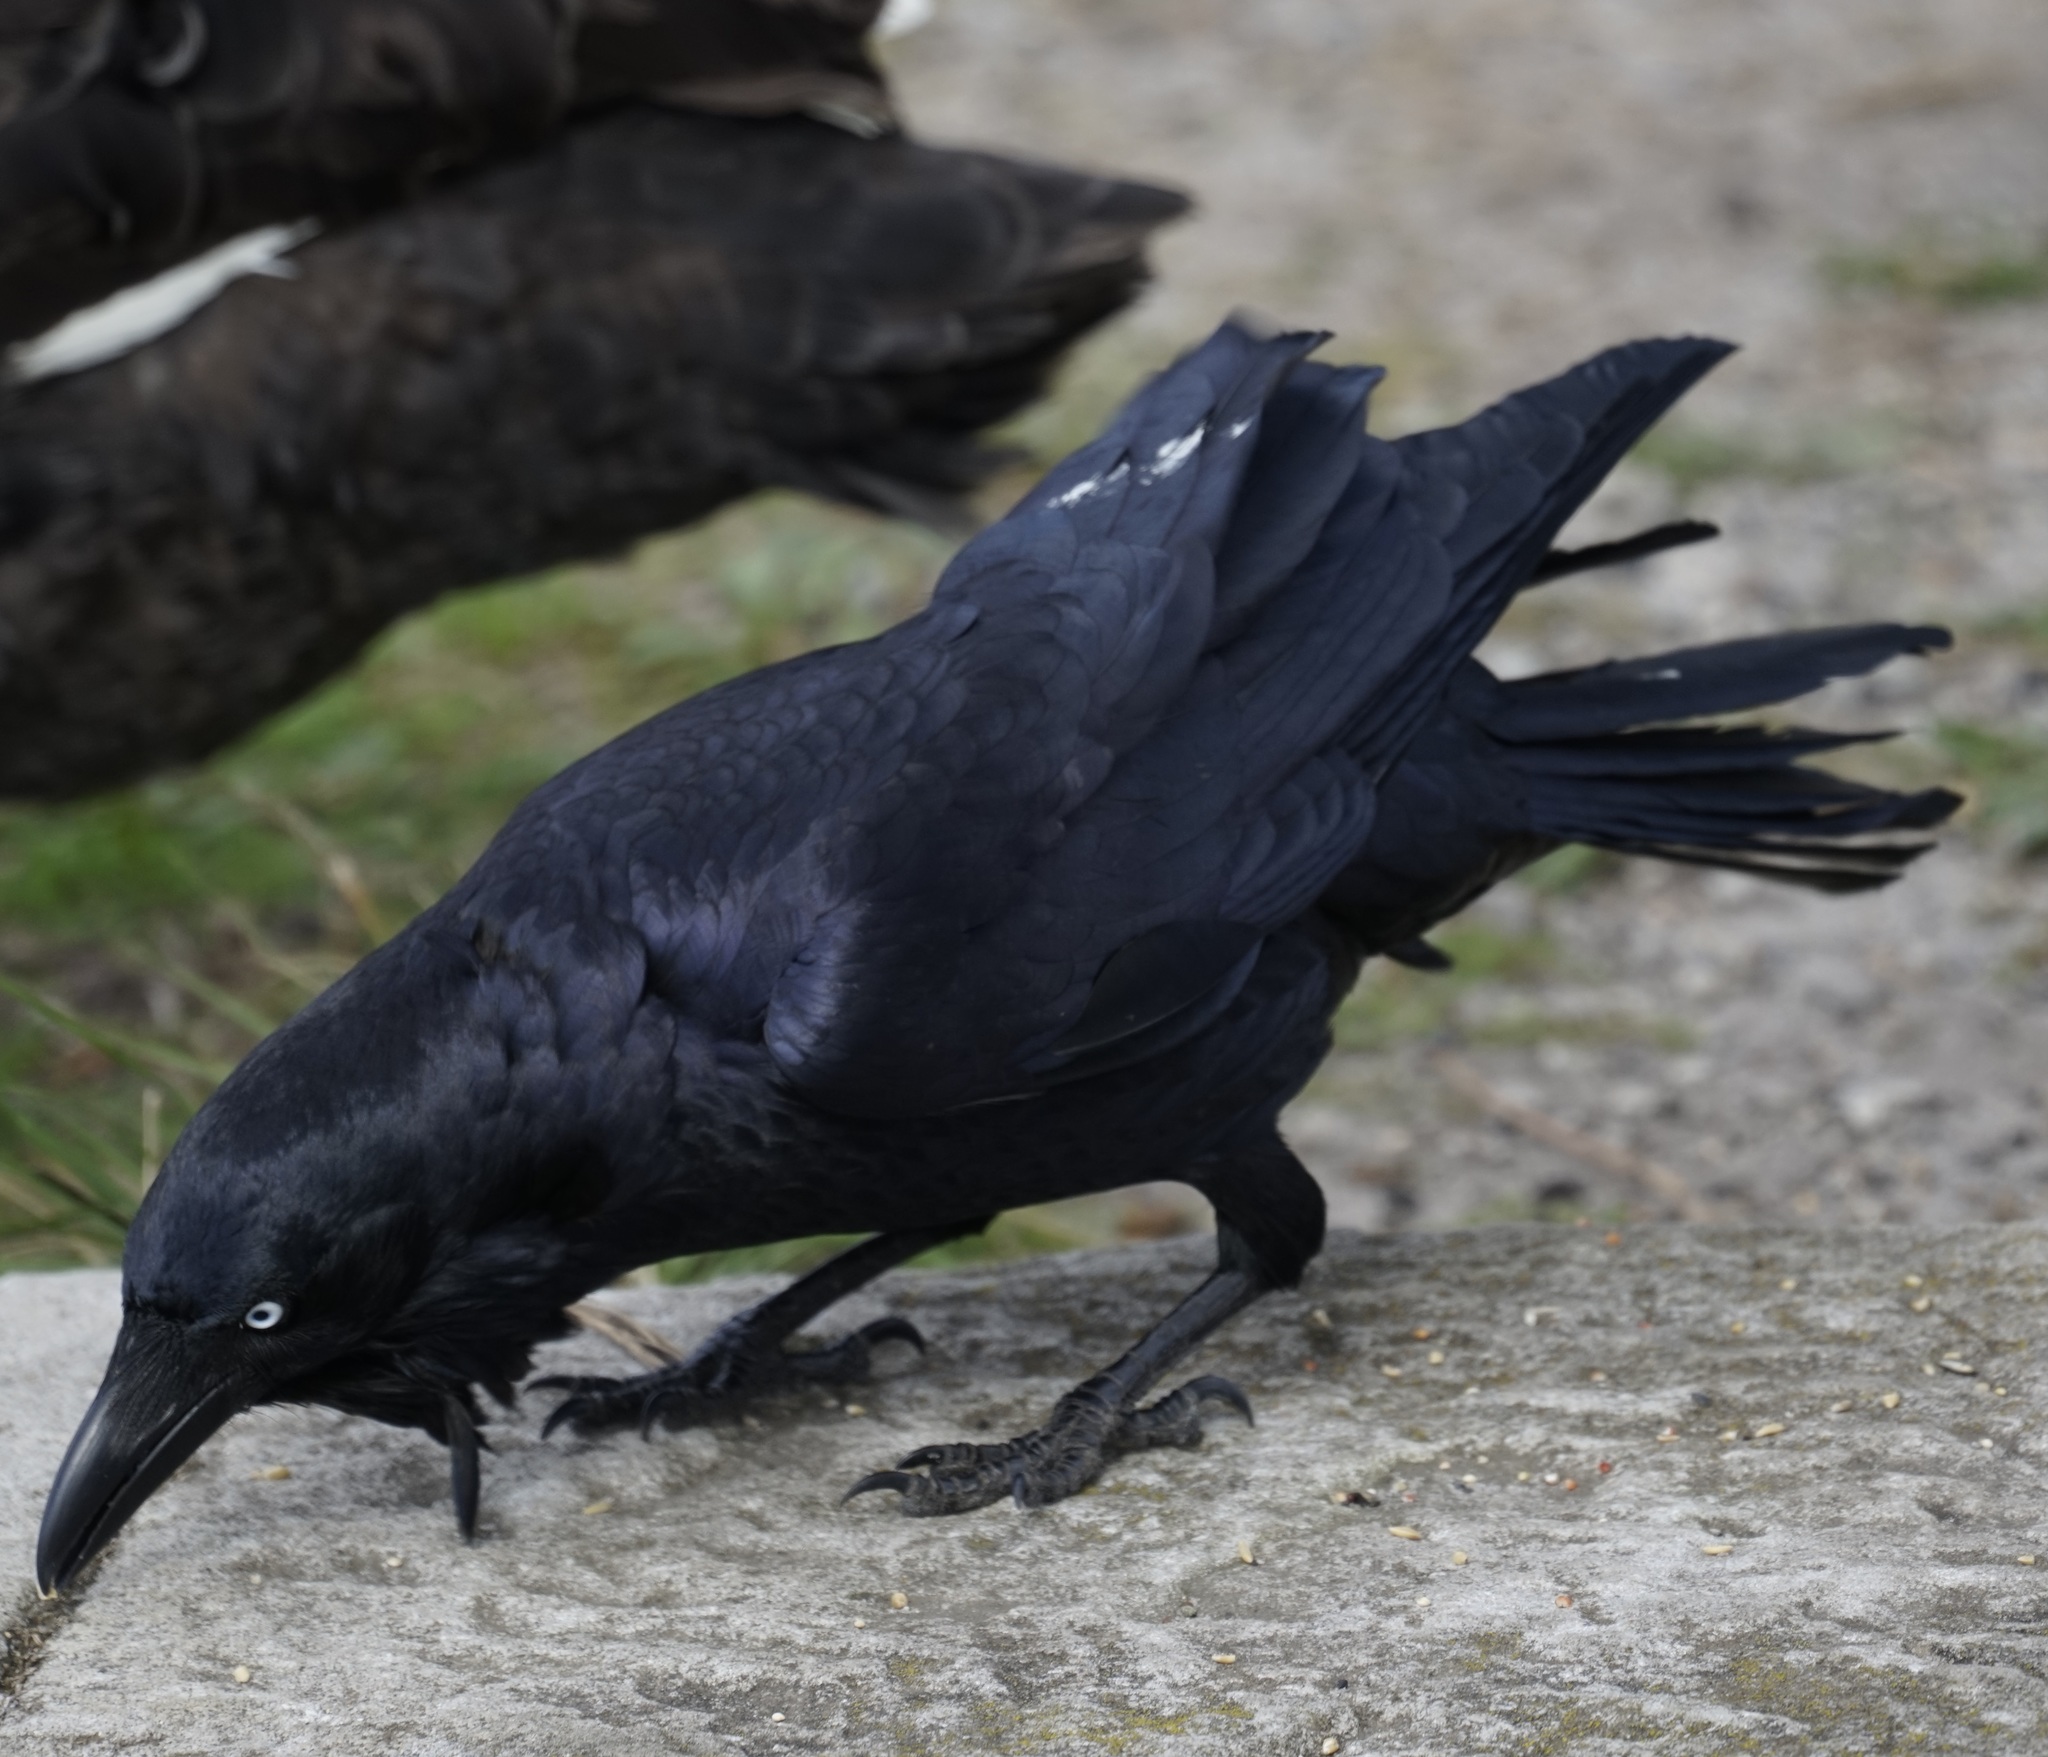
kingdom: Animalia
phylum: Chordata
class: Aves
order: Passeriformes
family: Corvidae
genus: Corvus
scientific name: Corvus coronoides
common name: Australian raven
